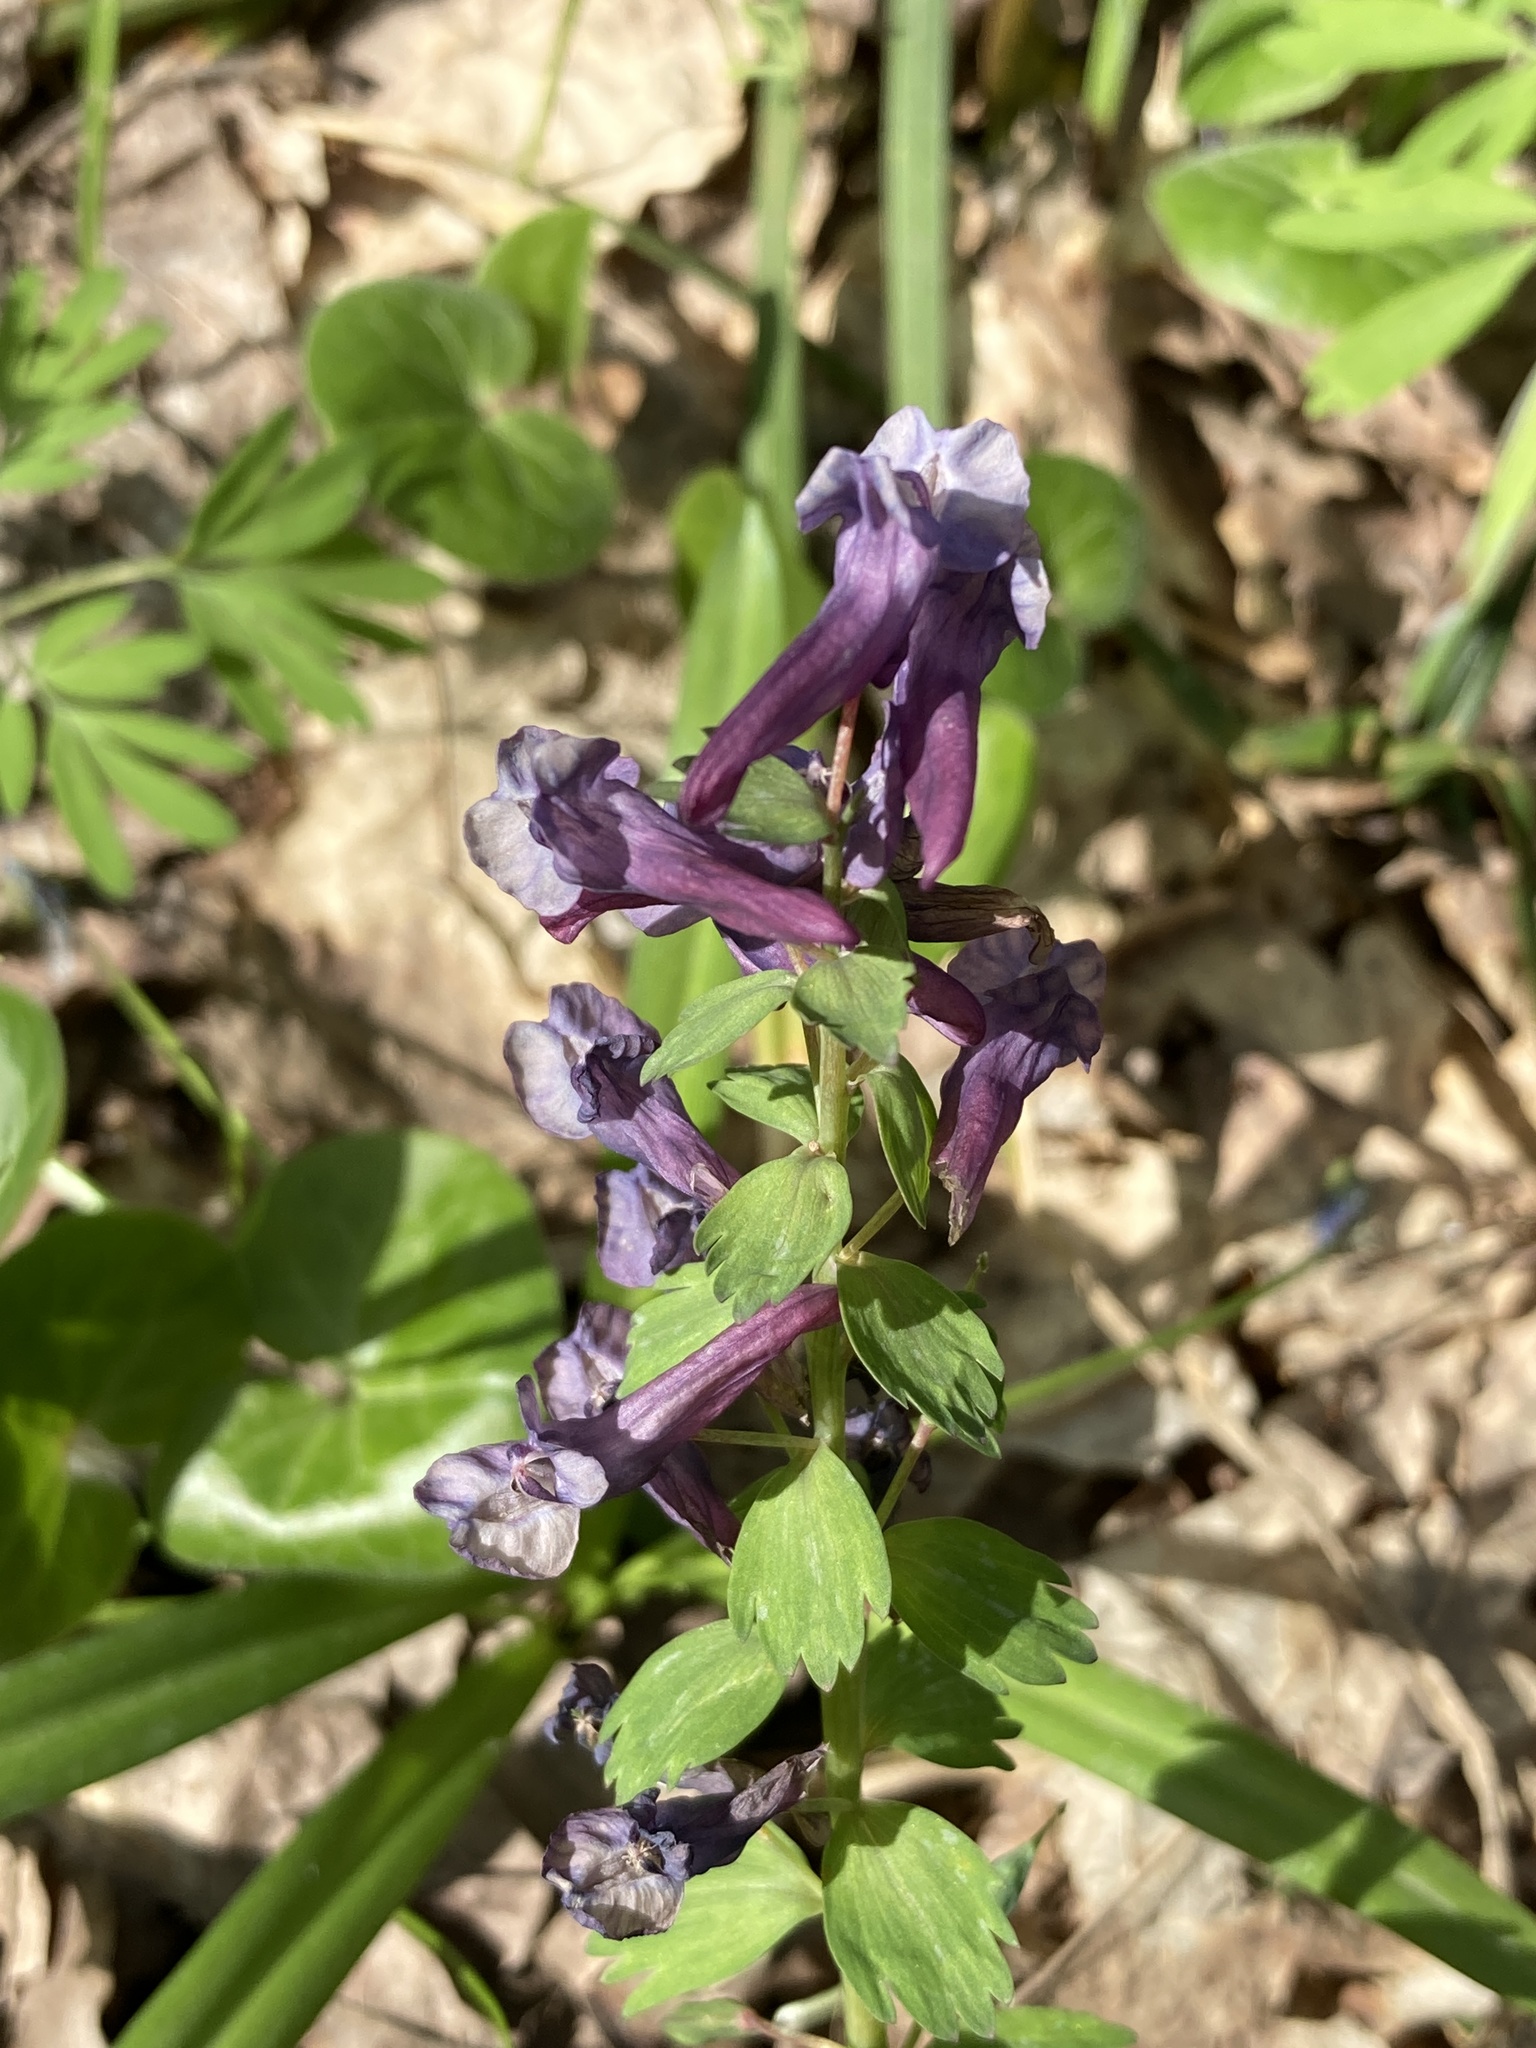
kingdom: Plantae
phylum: Tracheophyta
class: Magnoliopsida
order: Ranunculales
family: Papaveraceae
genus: Corydalis
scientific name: Corydalis solida
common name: Bird-in-a-bush
